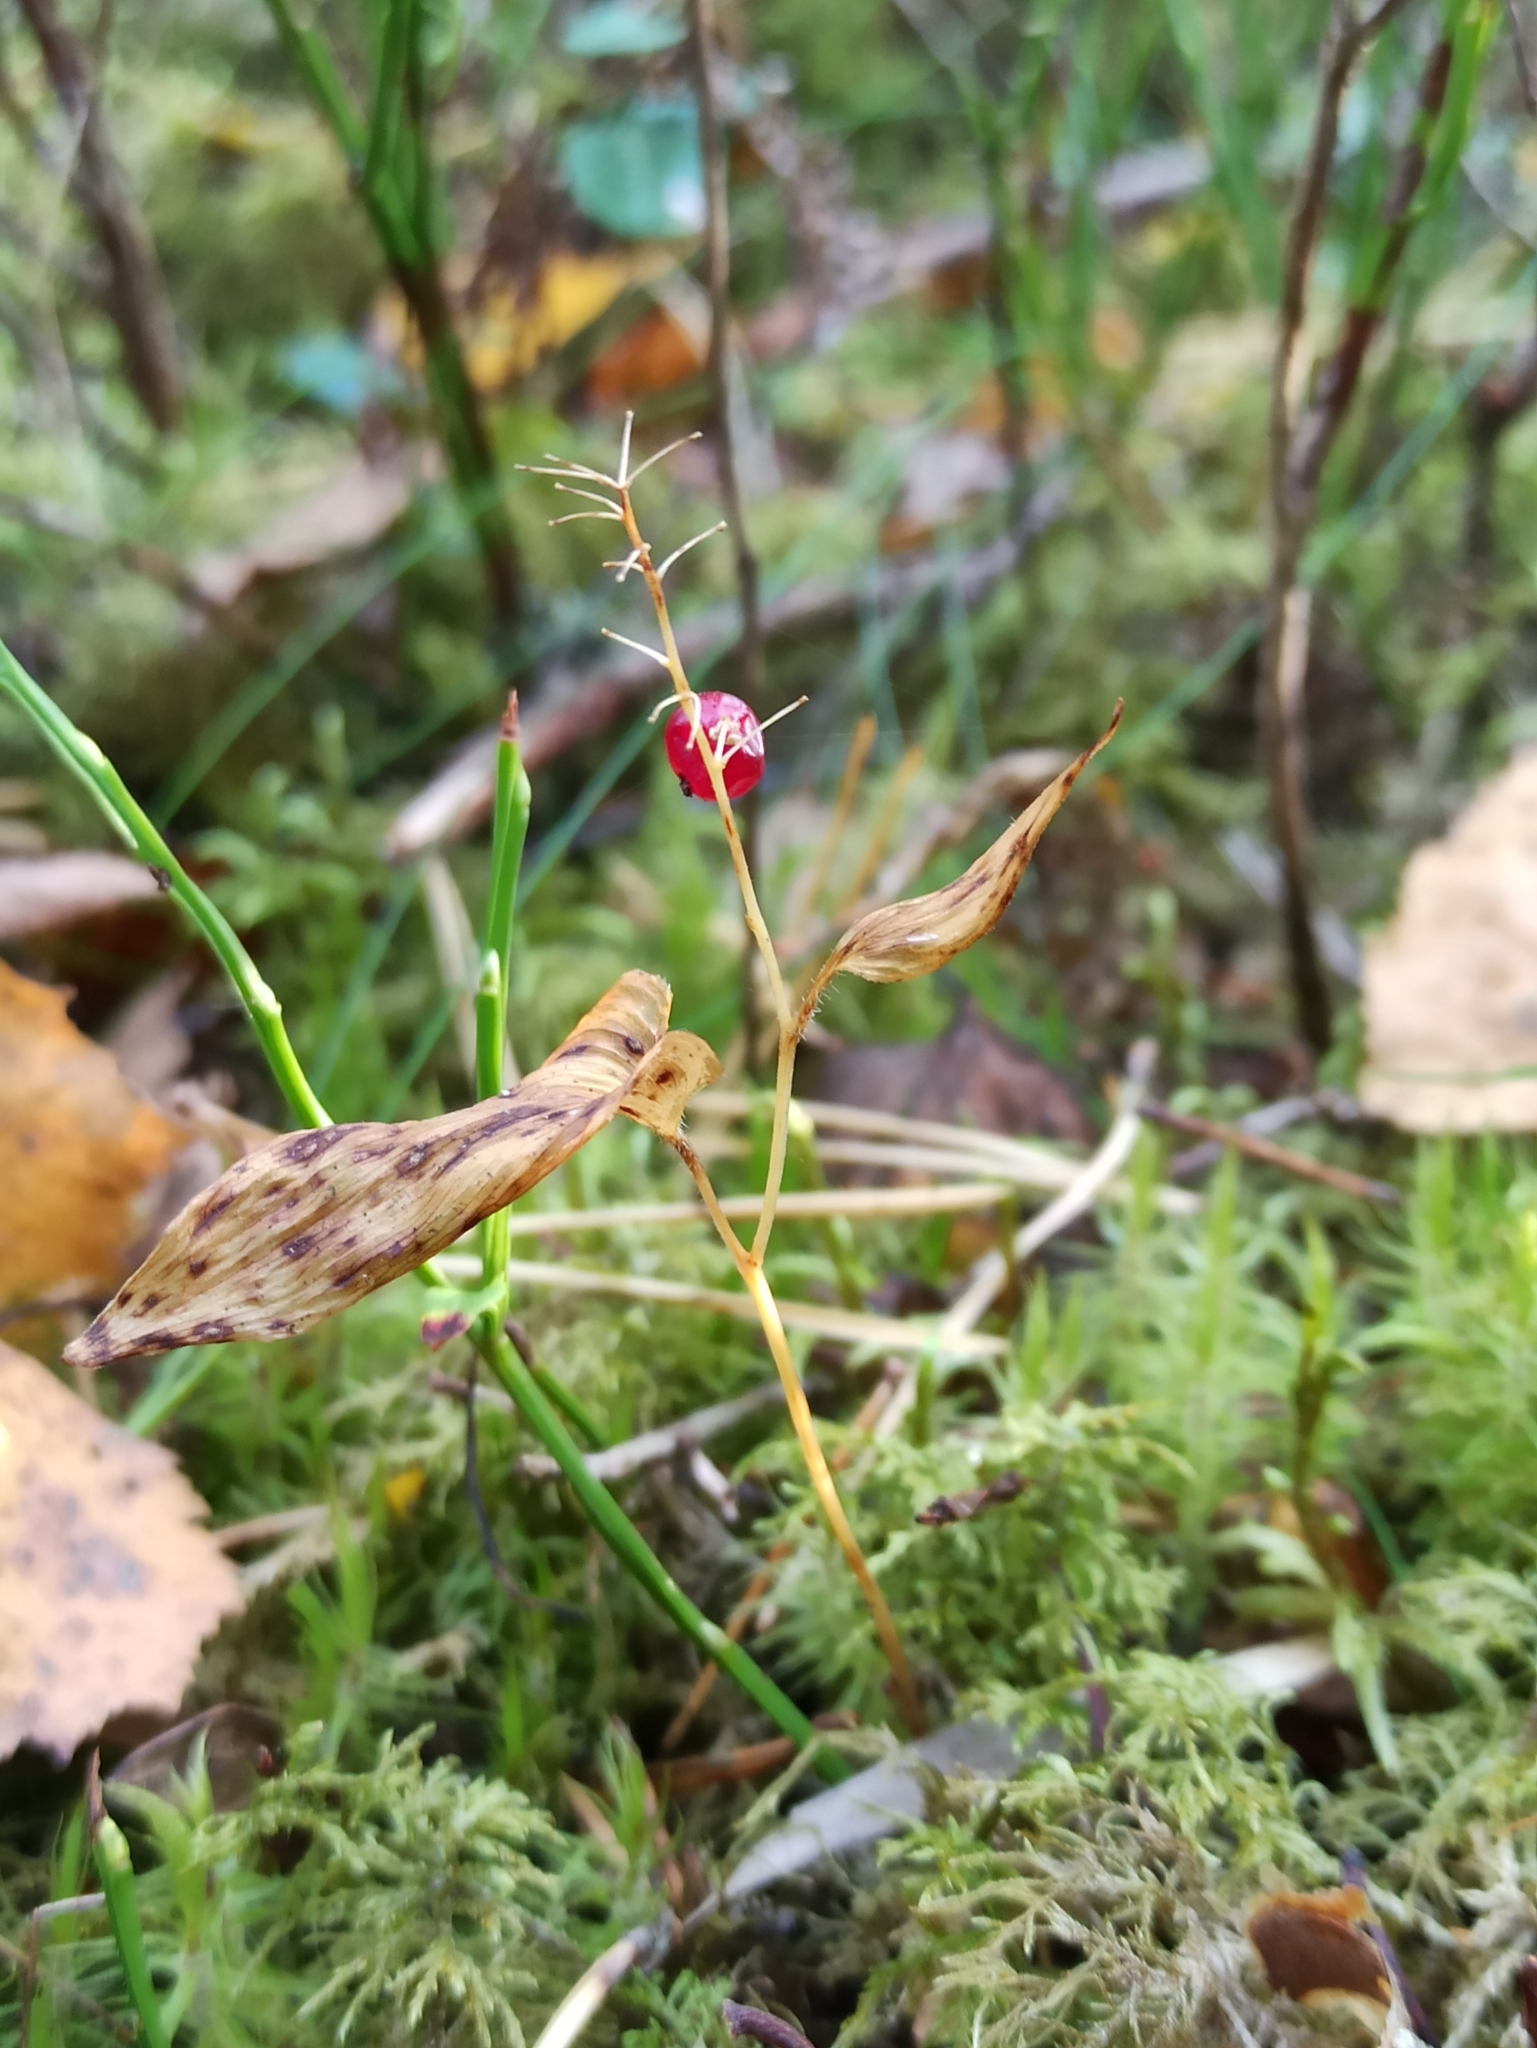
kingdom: Plantae
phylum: Tracheophyta
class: Liliopsida
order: Asparagales
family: Asparagaceae
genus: Maianthemum
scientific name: Maianthemum bifolium
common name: May lily
